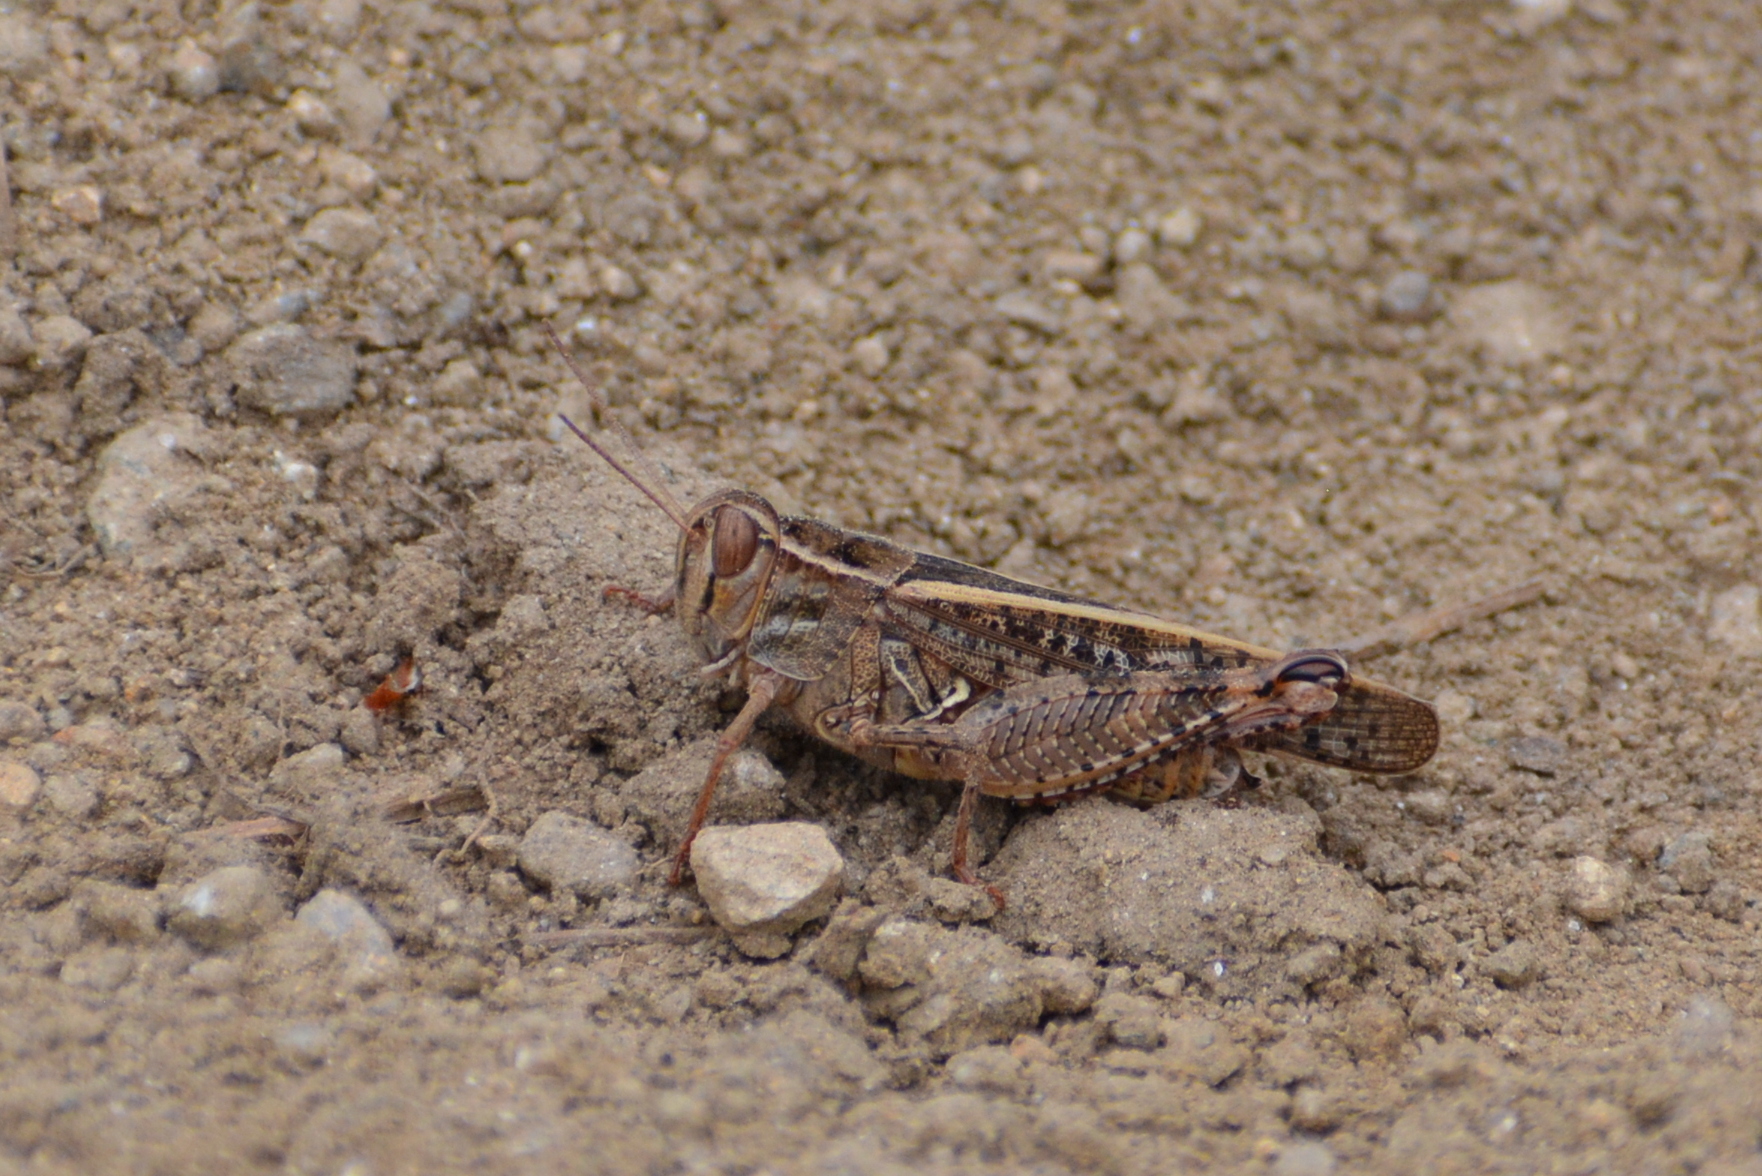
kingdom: Animalia
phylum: Arthropoda
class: Insecta
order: Orthoptera
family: Acrididae
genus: Calliptamus
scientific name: Calliptamus italicus
